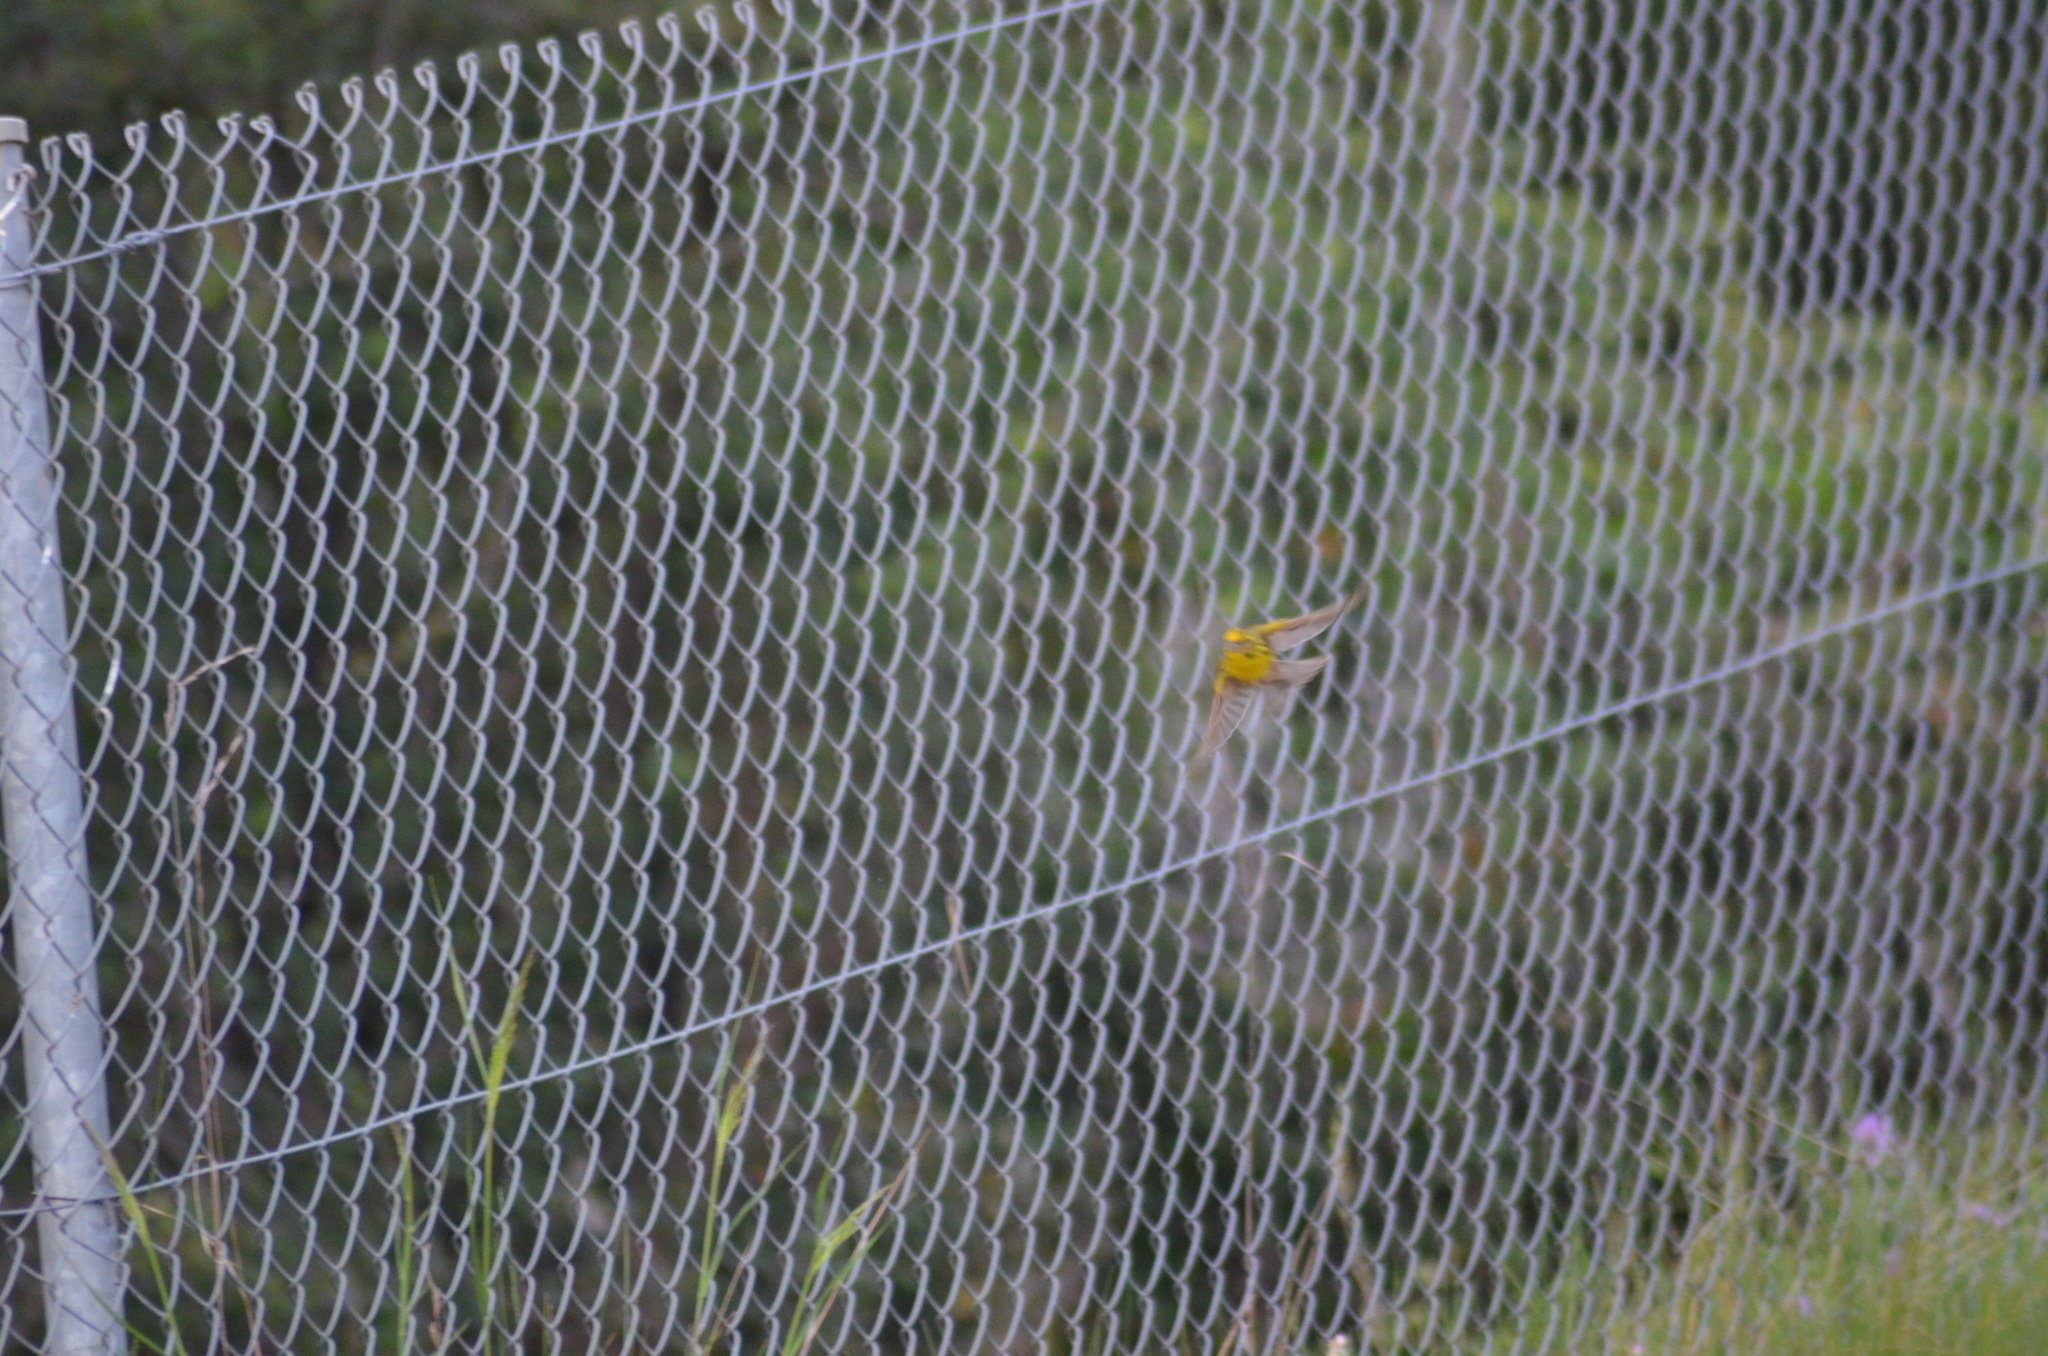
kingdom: Animalia
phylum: Chordata
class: Aves
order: Passeriformes
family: Fringillidae
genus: Serinus
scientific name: Serinus serinus
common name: European serin
